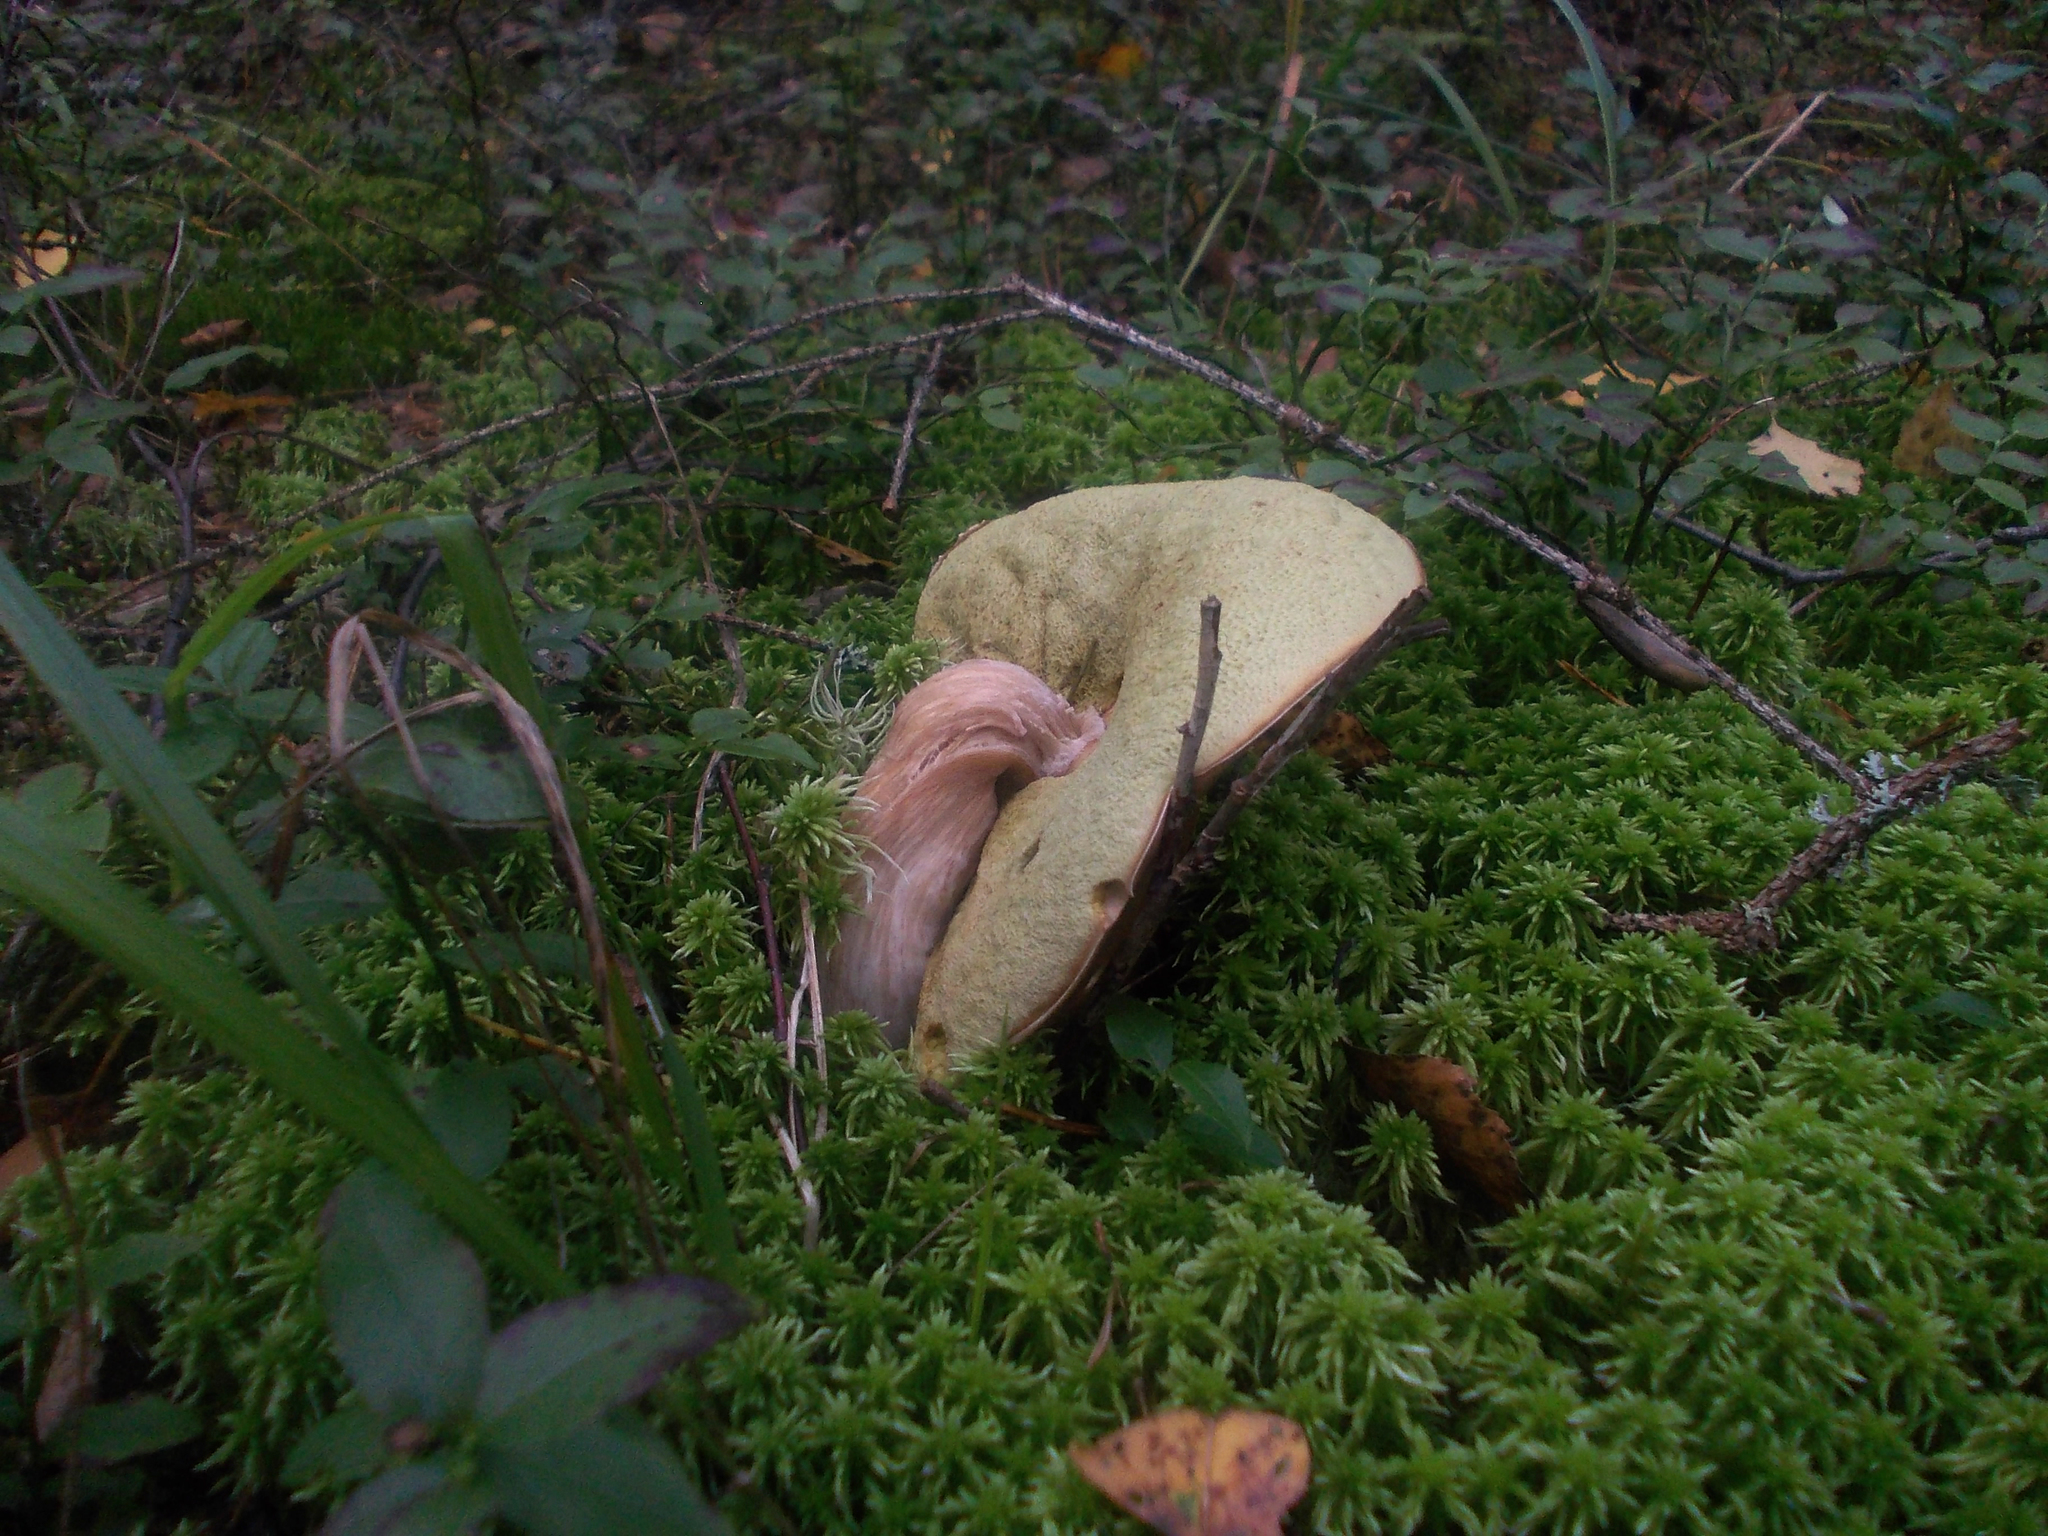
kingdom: Fungi
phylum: Basidiomycota
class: Agaricomycetes
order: Boletales
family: Boletaceae
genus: Boletus
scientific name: Boletus edulis
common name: Cep
